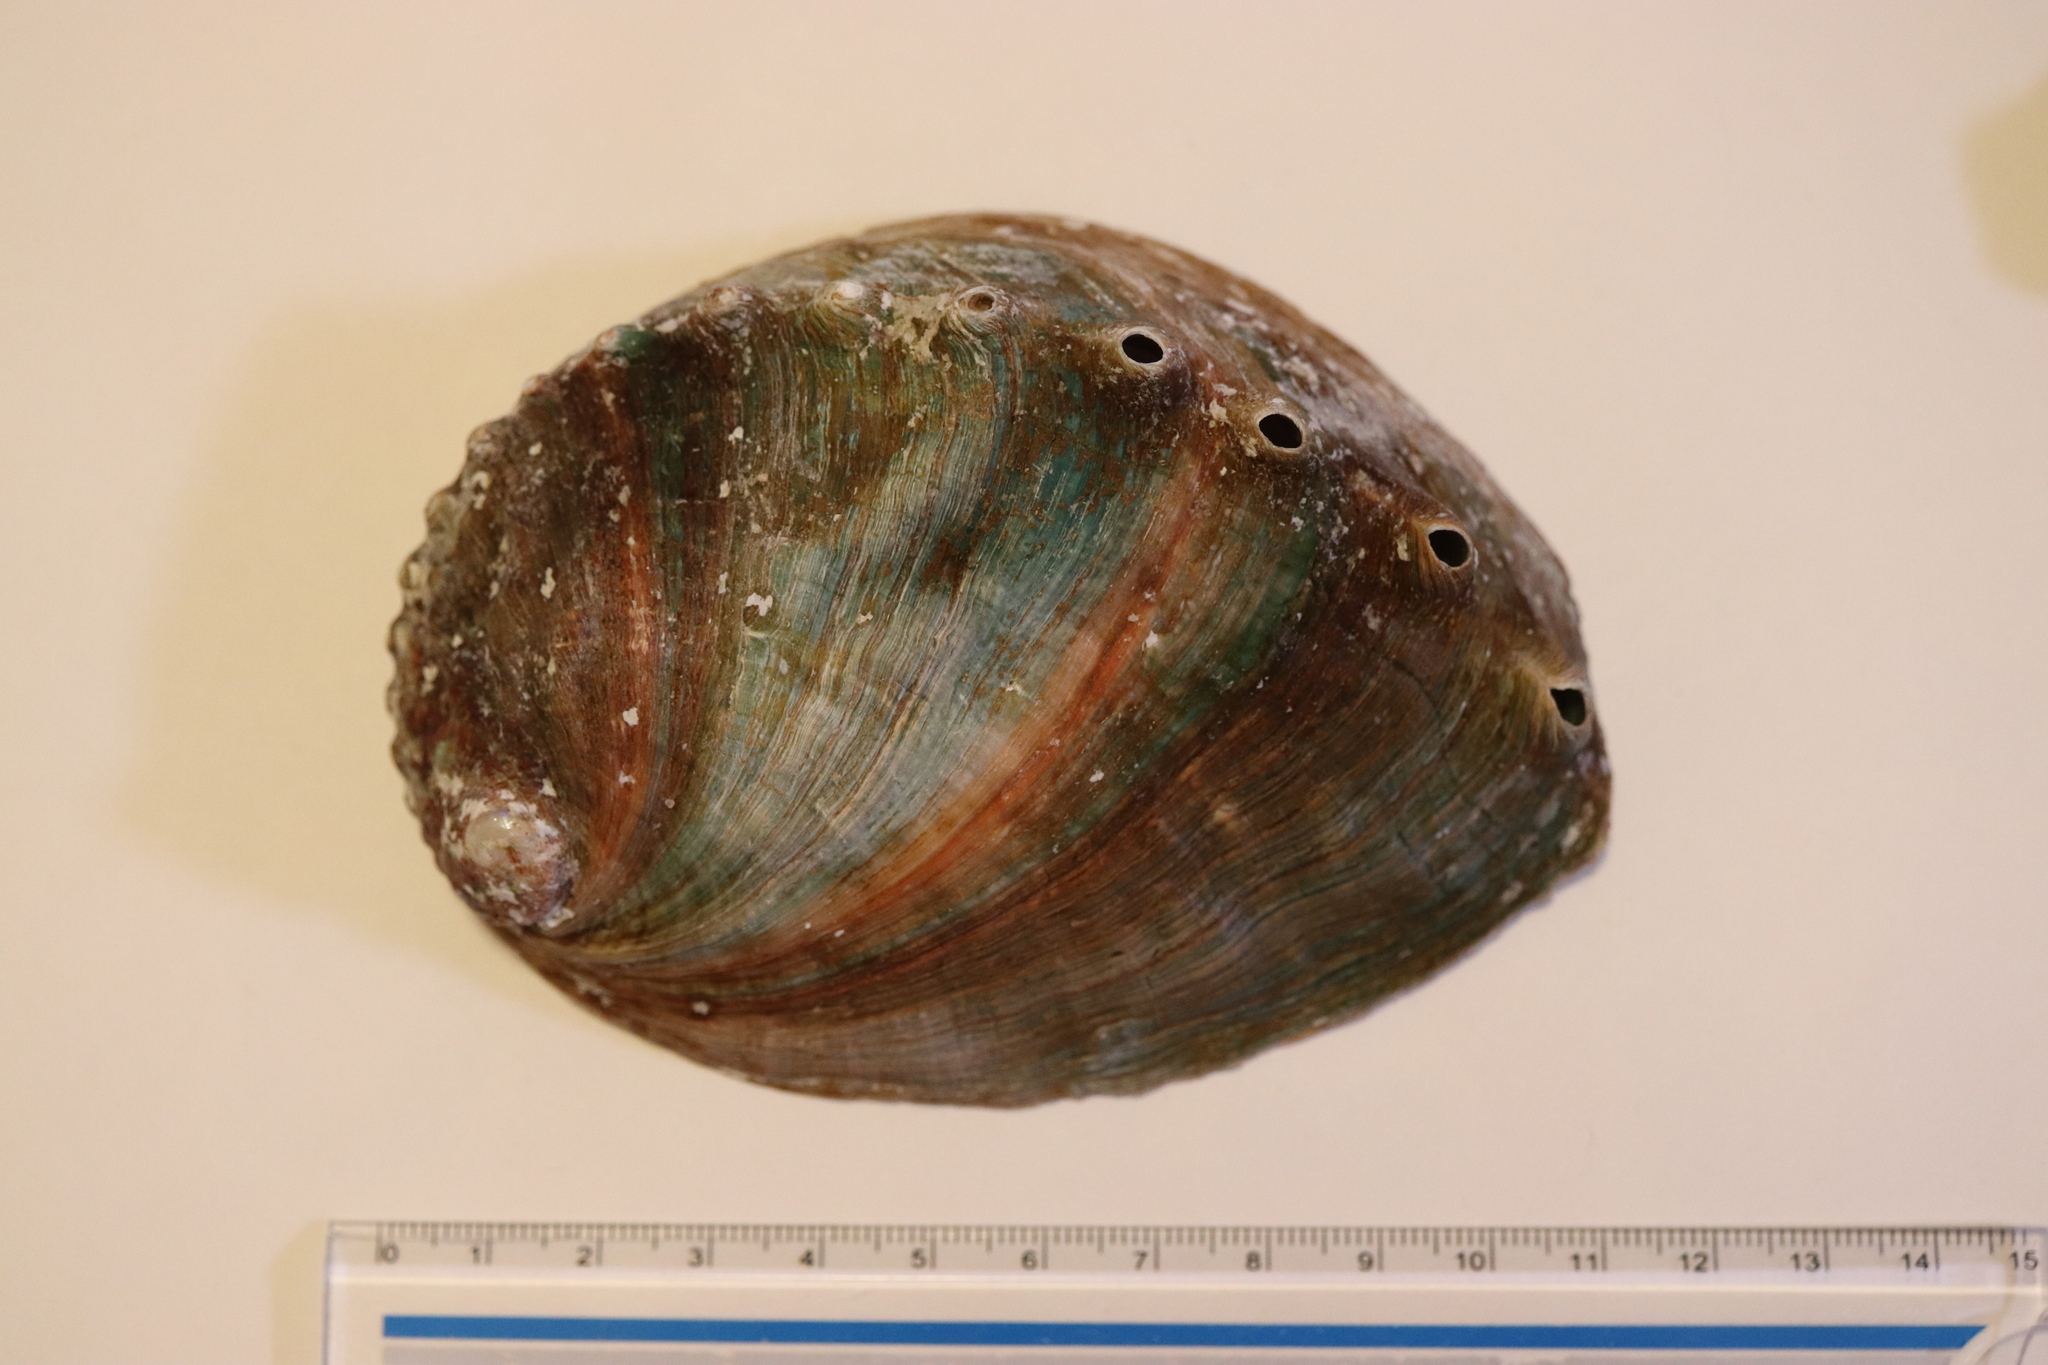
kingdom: Animalia
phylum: Mollusca
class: Gastropoda
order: Lepetellida
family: Haliotidae
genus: Haliotis
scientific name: Haliotis discus
